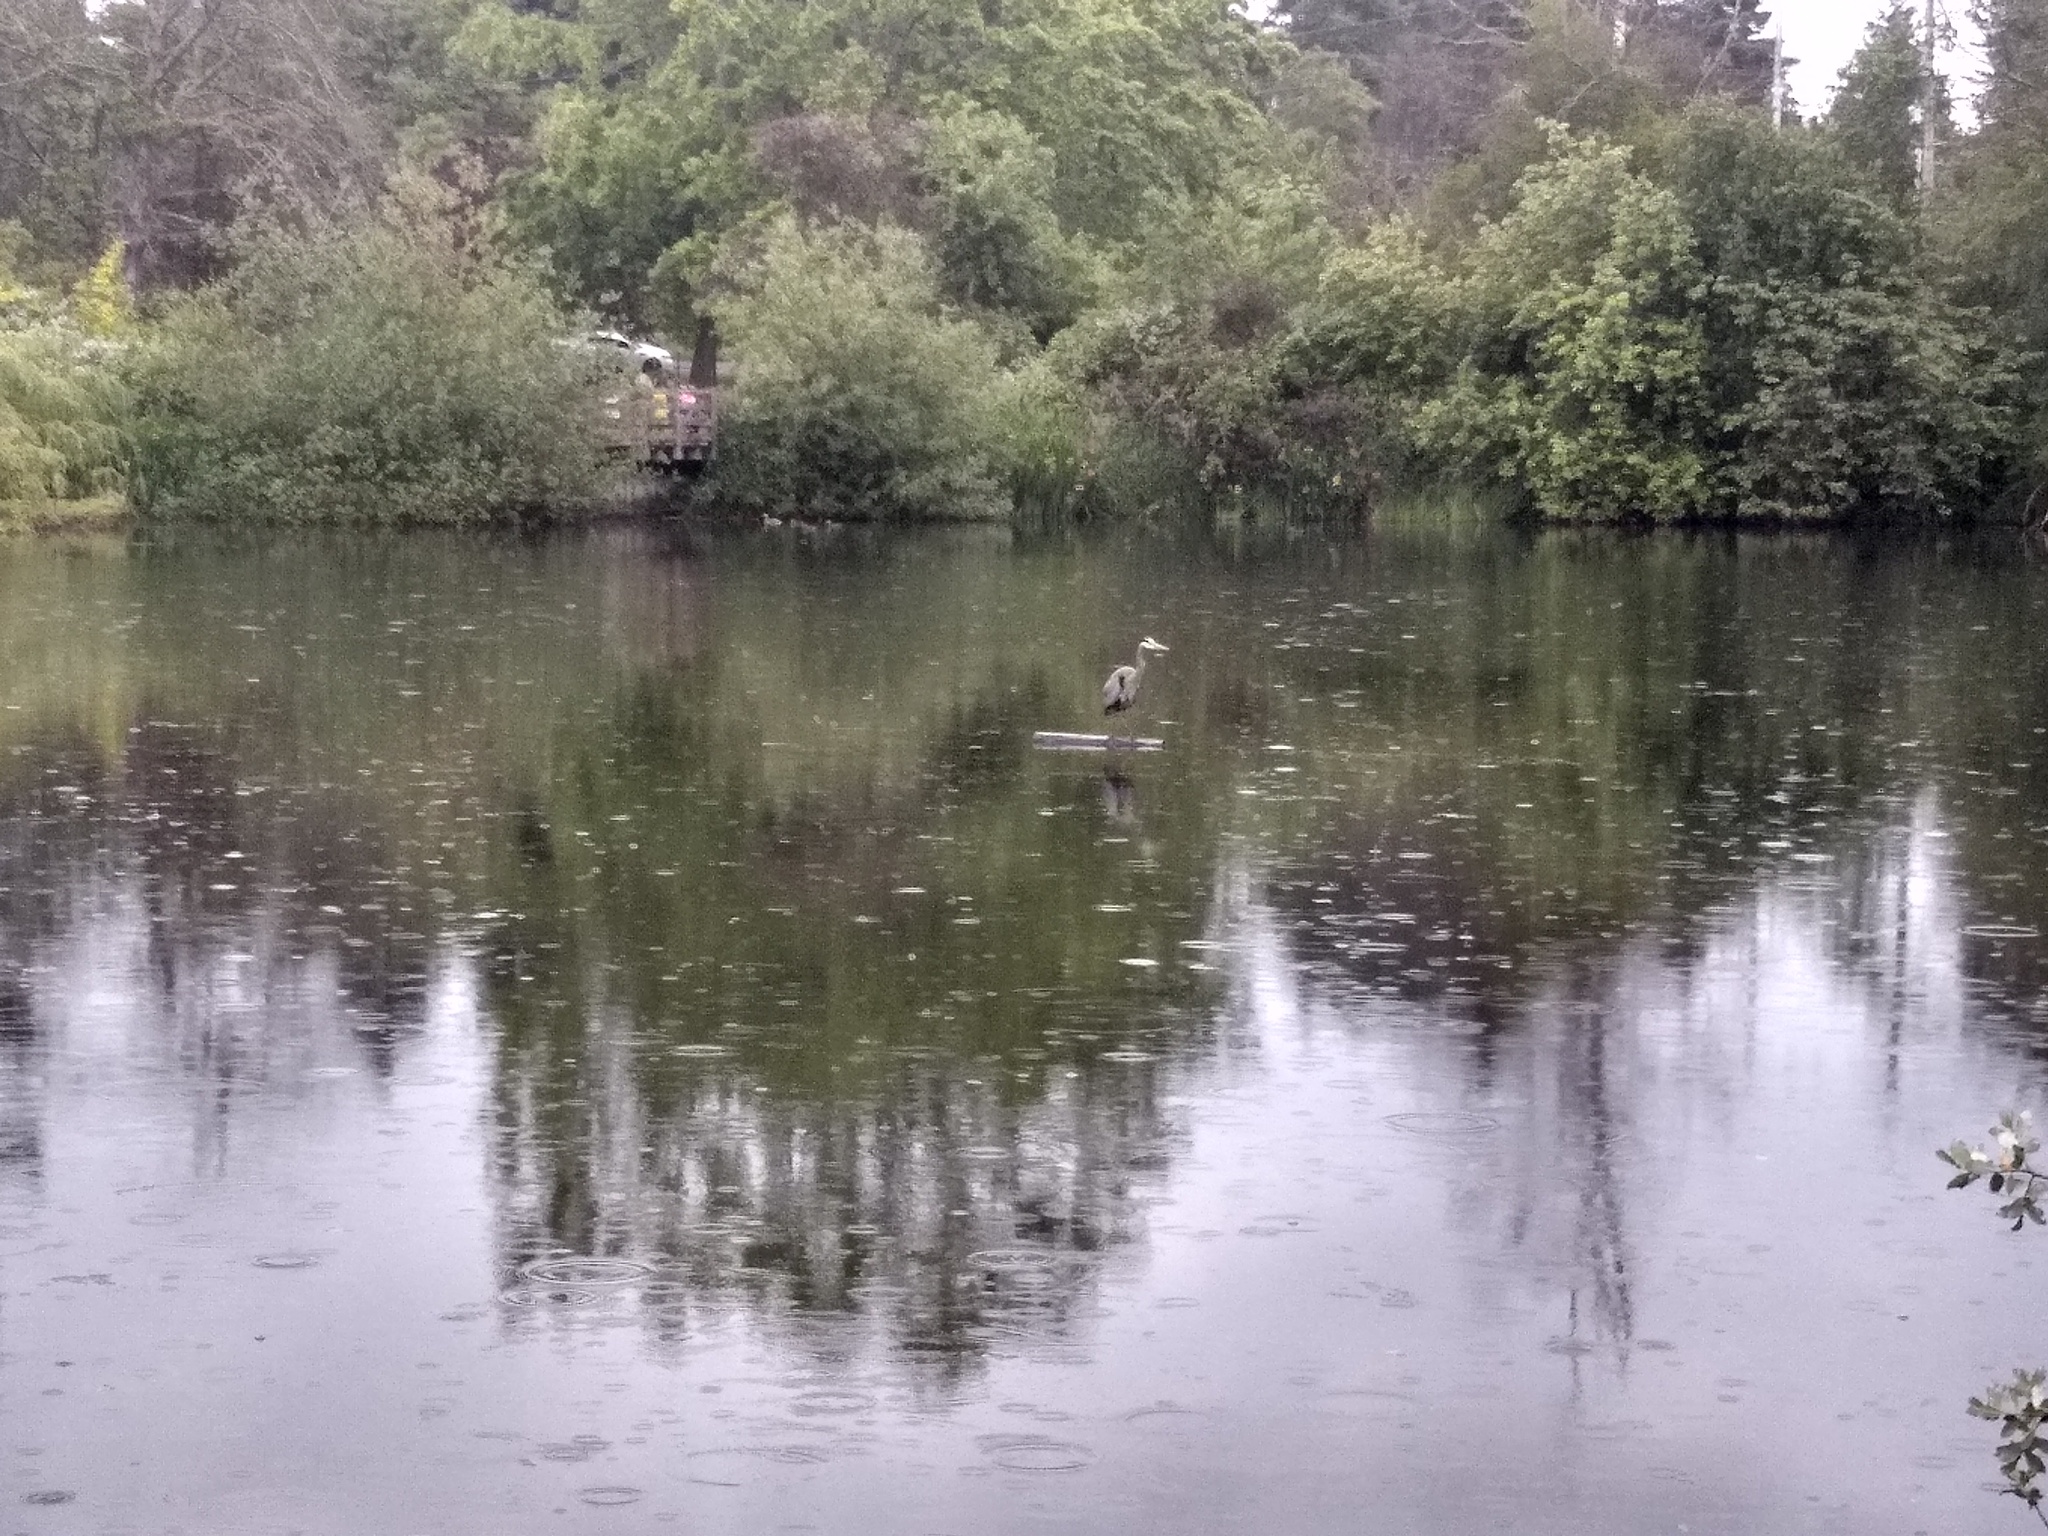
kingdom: Animalia
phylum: Chordata
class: Aves
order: Pelecaniformes
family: Ardeidae
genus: Ardea
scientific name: Ardea herodias
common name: Great blue heron
